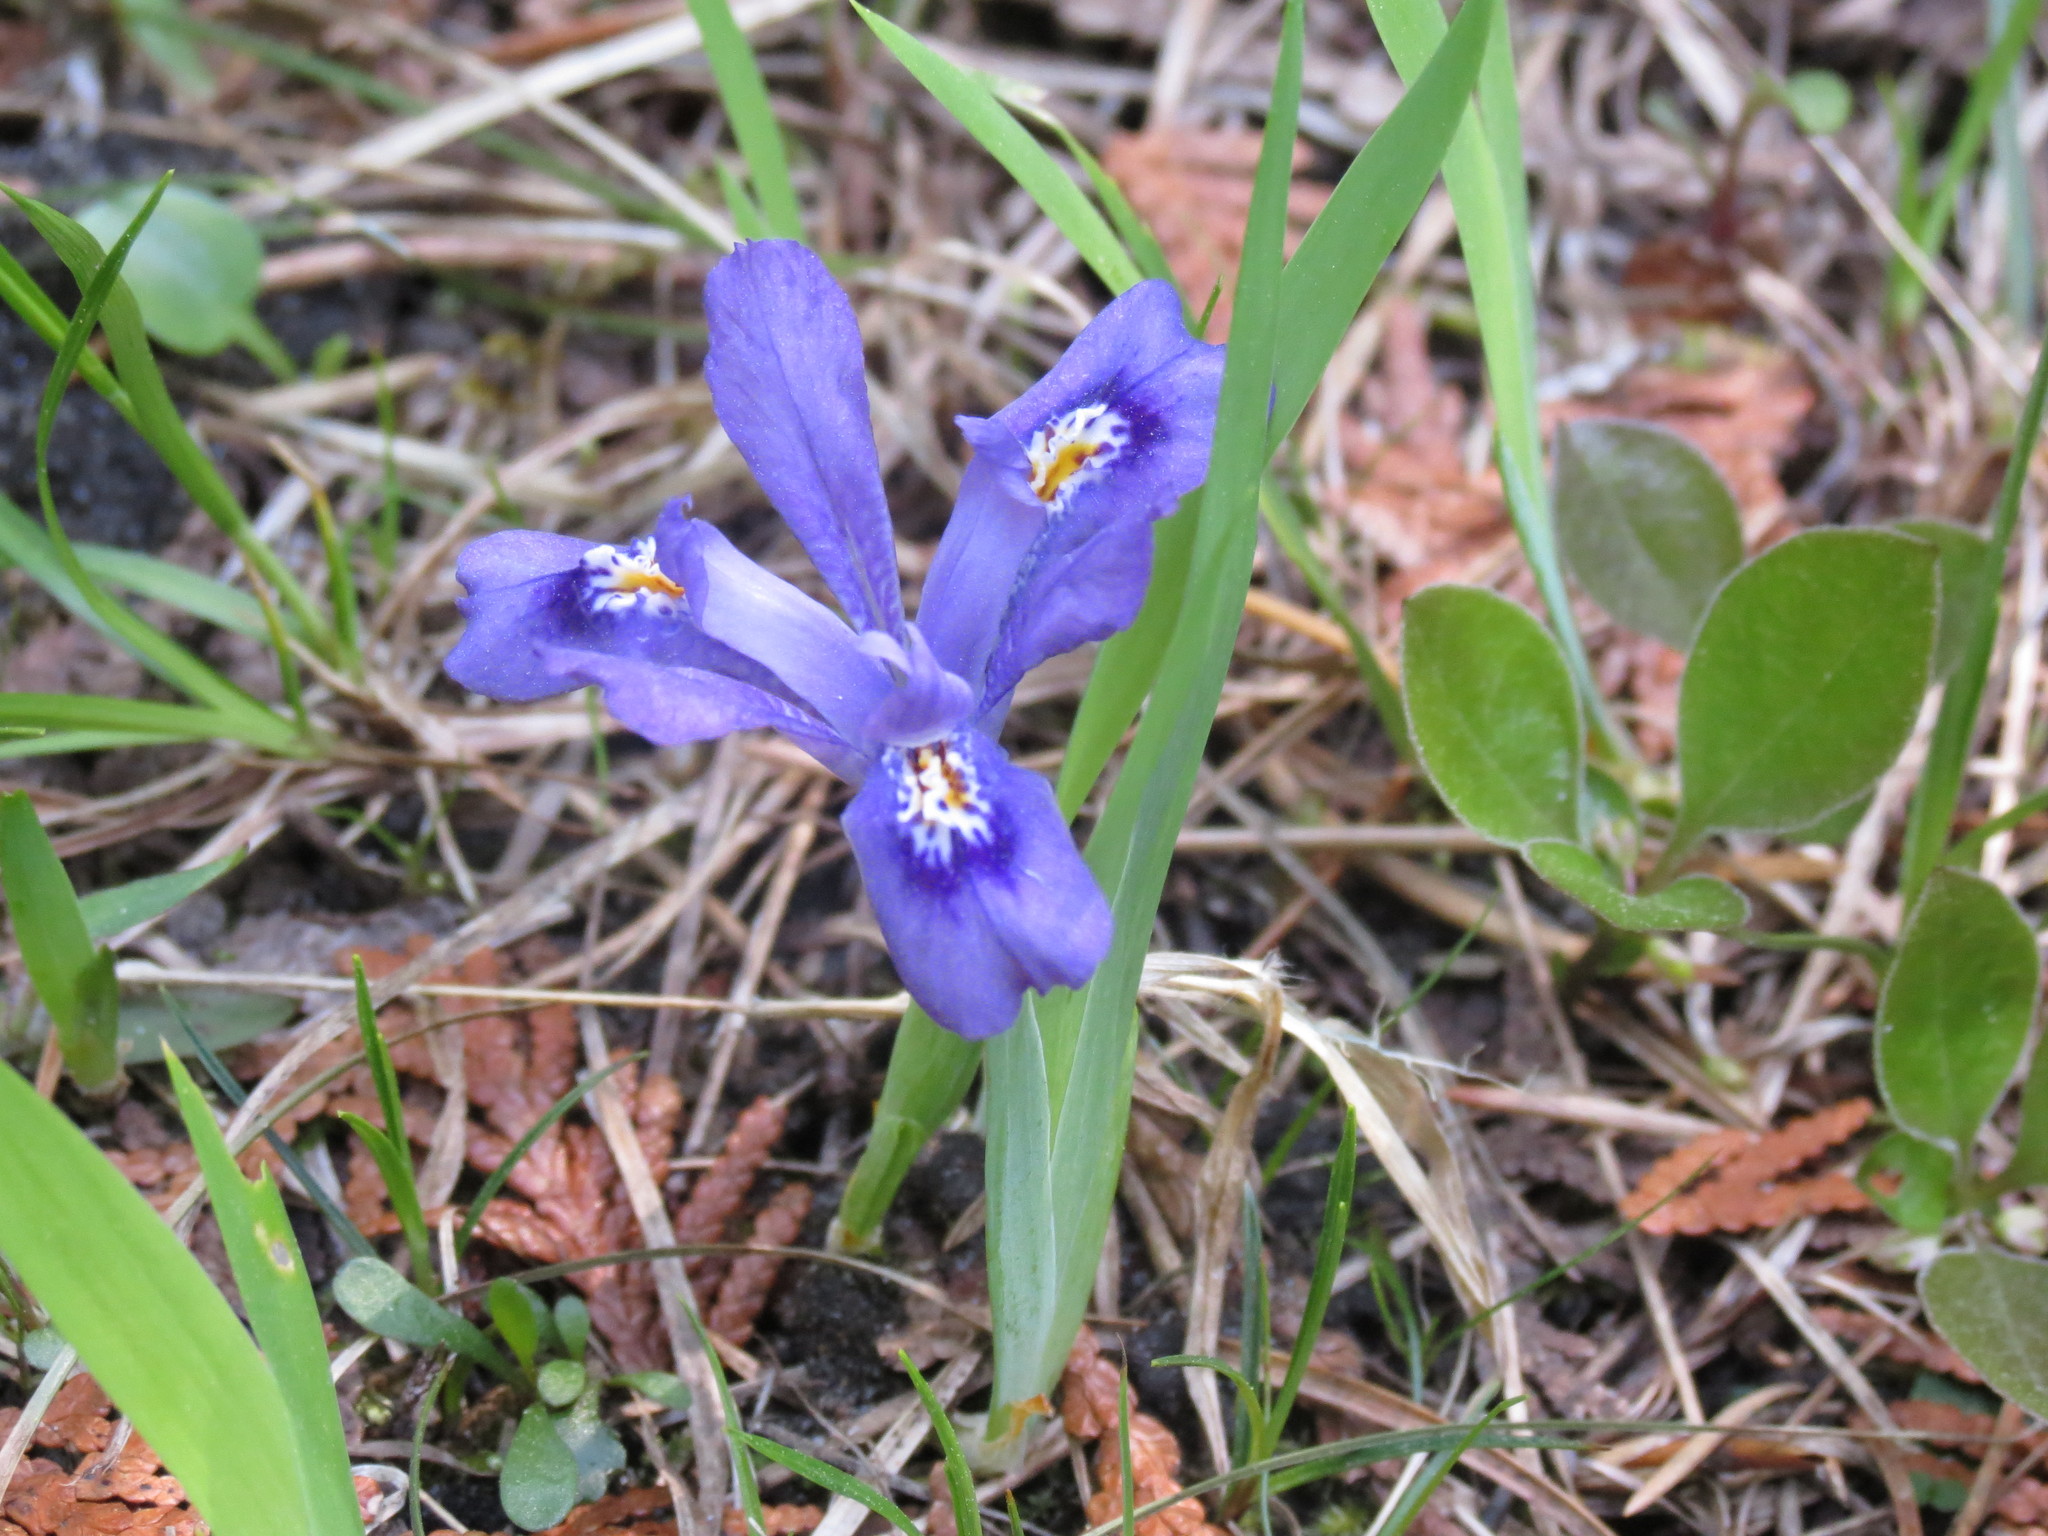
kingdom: Plantae
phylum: Tracheophyta
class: Liliopsida
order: Asparagales
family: Iridaceae
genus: Iris
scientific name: Iris lacustris
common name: Dwarf lake iris
